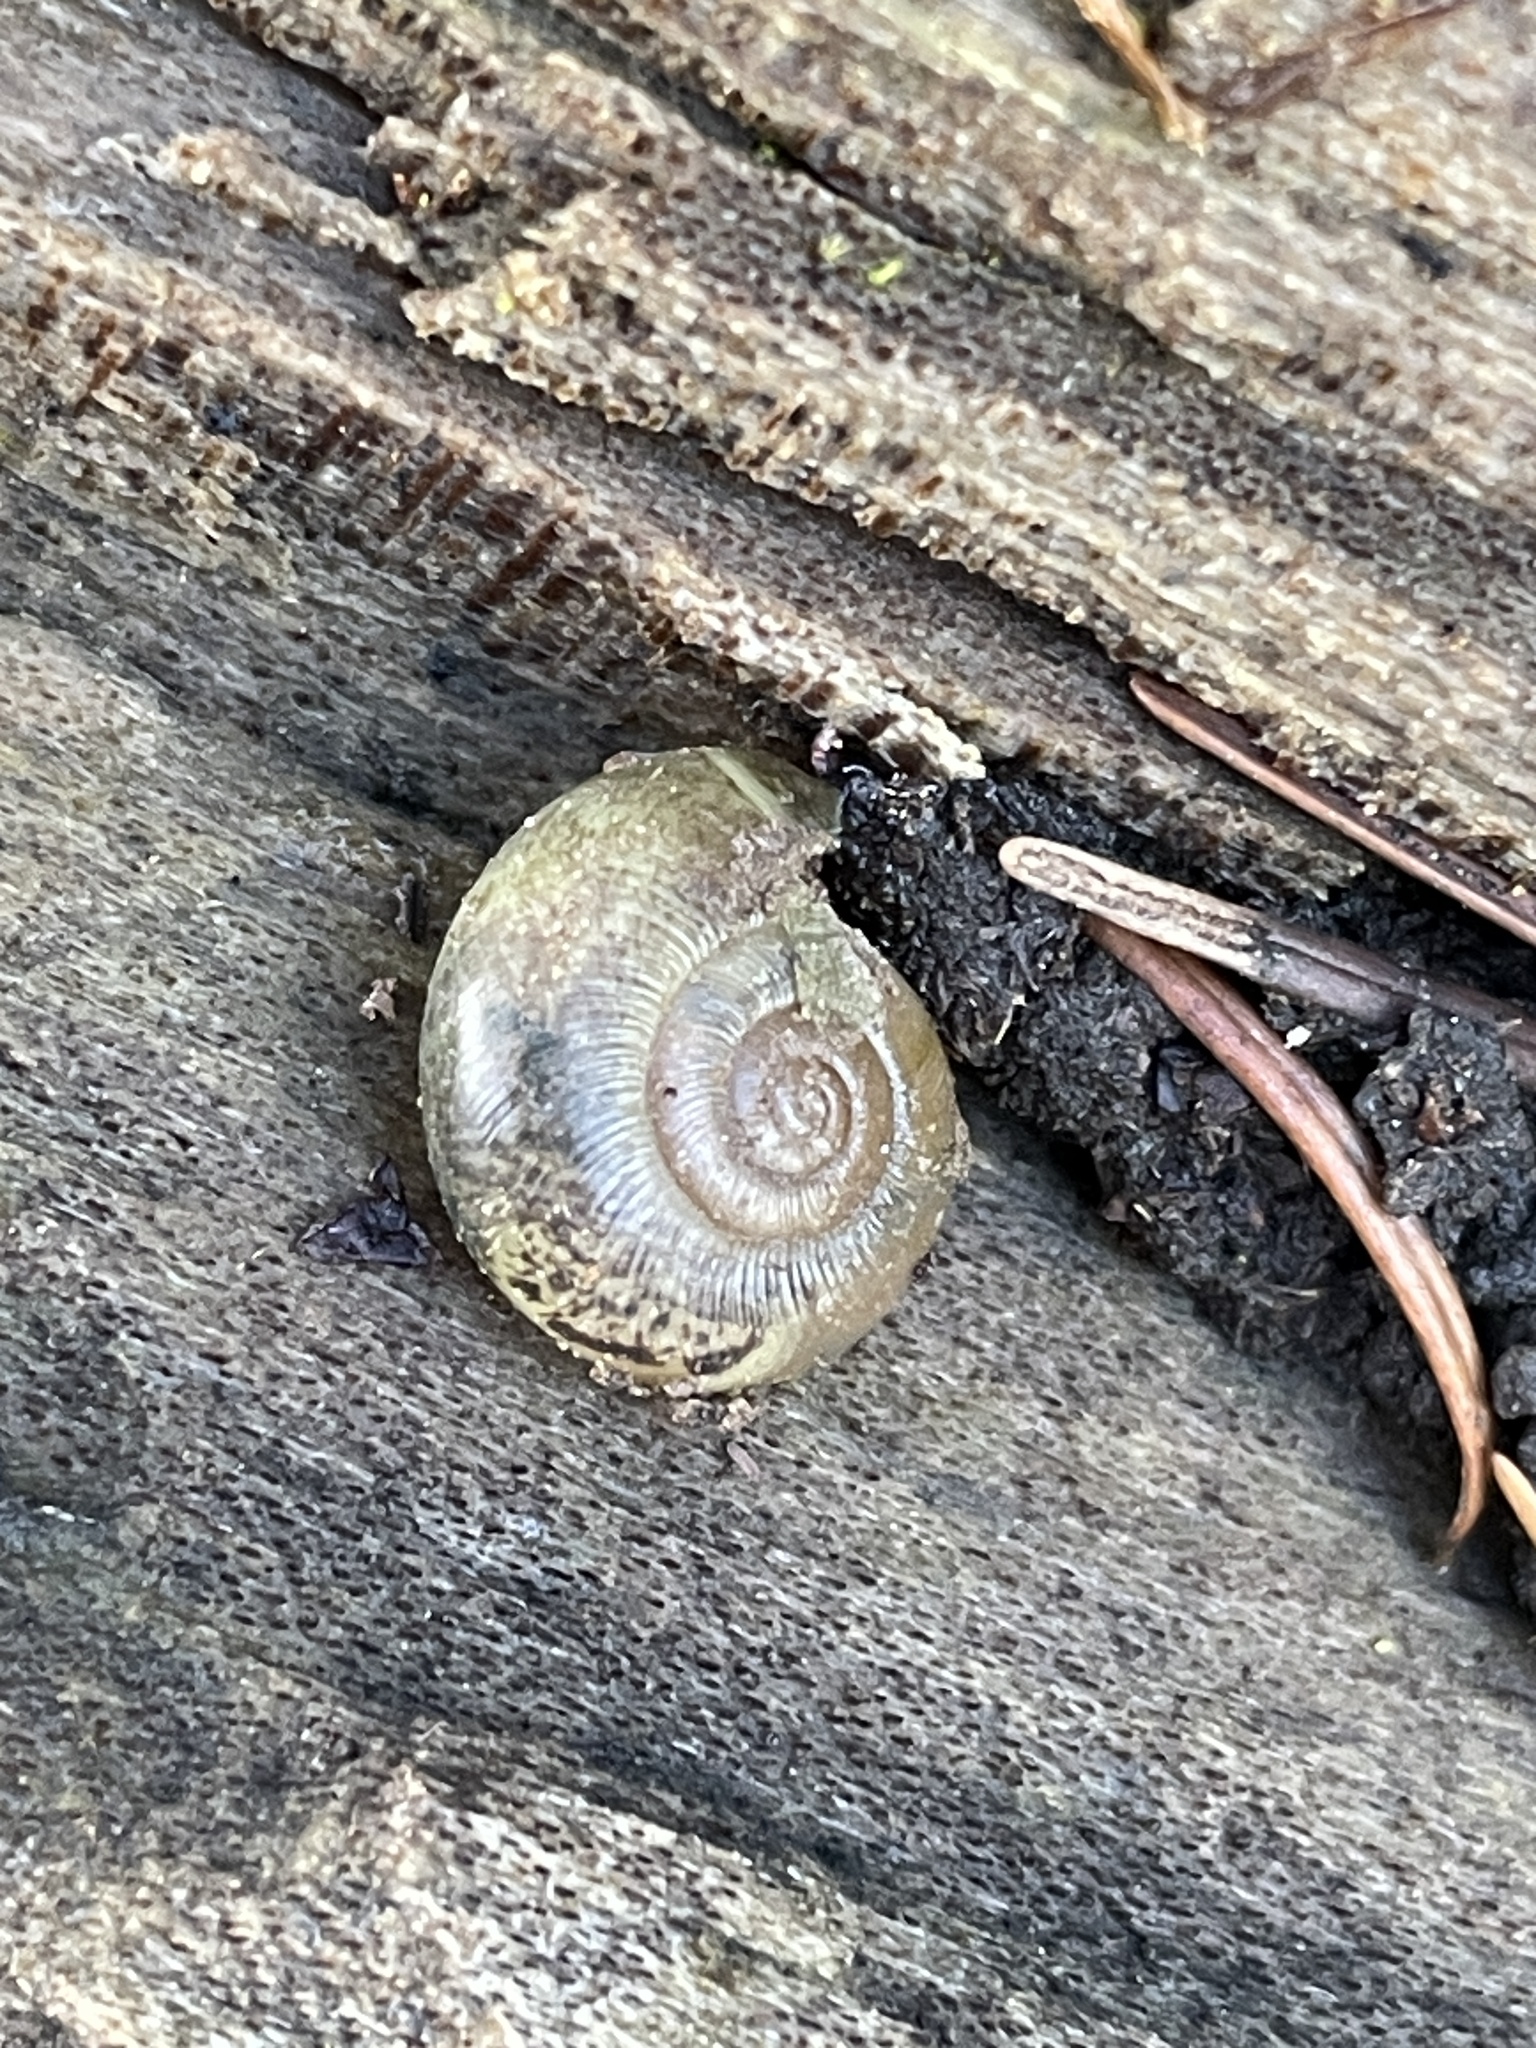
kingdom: Animalia
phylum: Mollusca
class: Gastropoda
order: Stylommatophora
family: Haplotrematidae
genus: Ancotrema
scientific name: Ancotrema sportella
